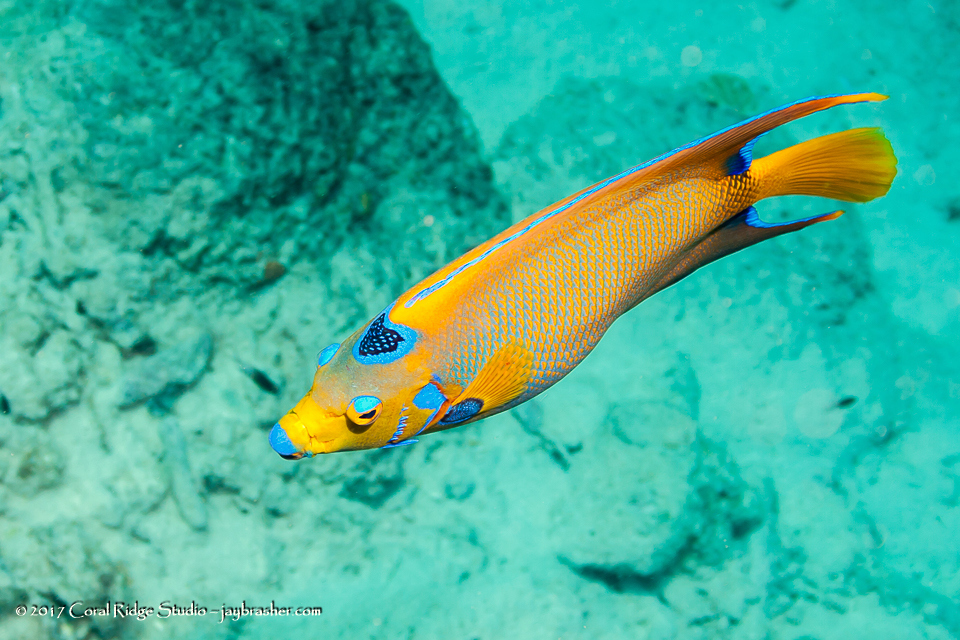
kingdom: Animalia
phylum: Chordata
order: Perciformes
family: Pomacanthidae
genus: Holacanthus
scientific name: Holacanthus ciliaris
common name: Queen angelfish
